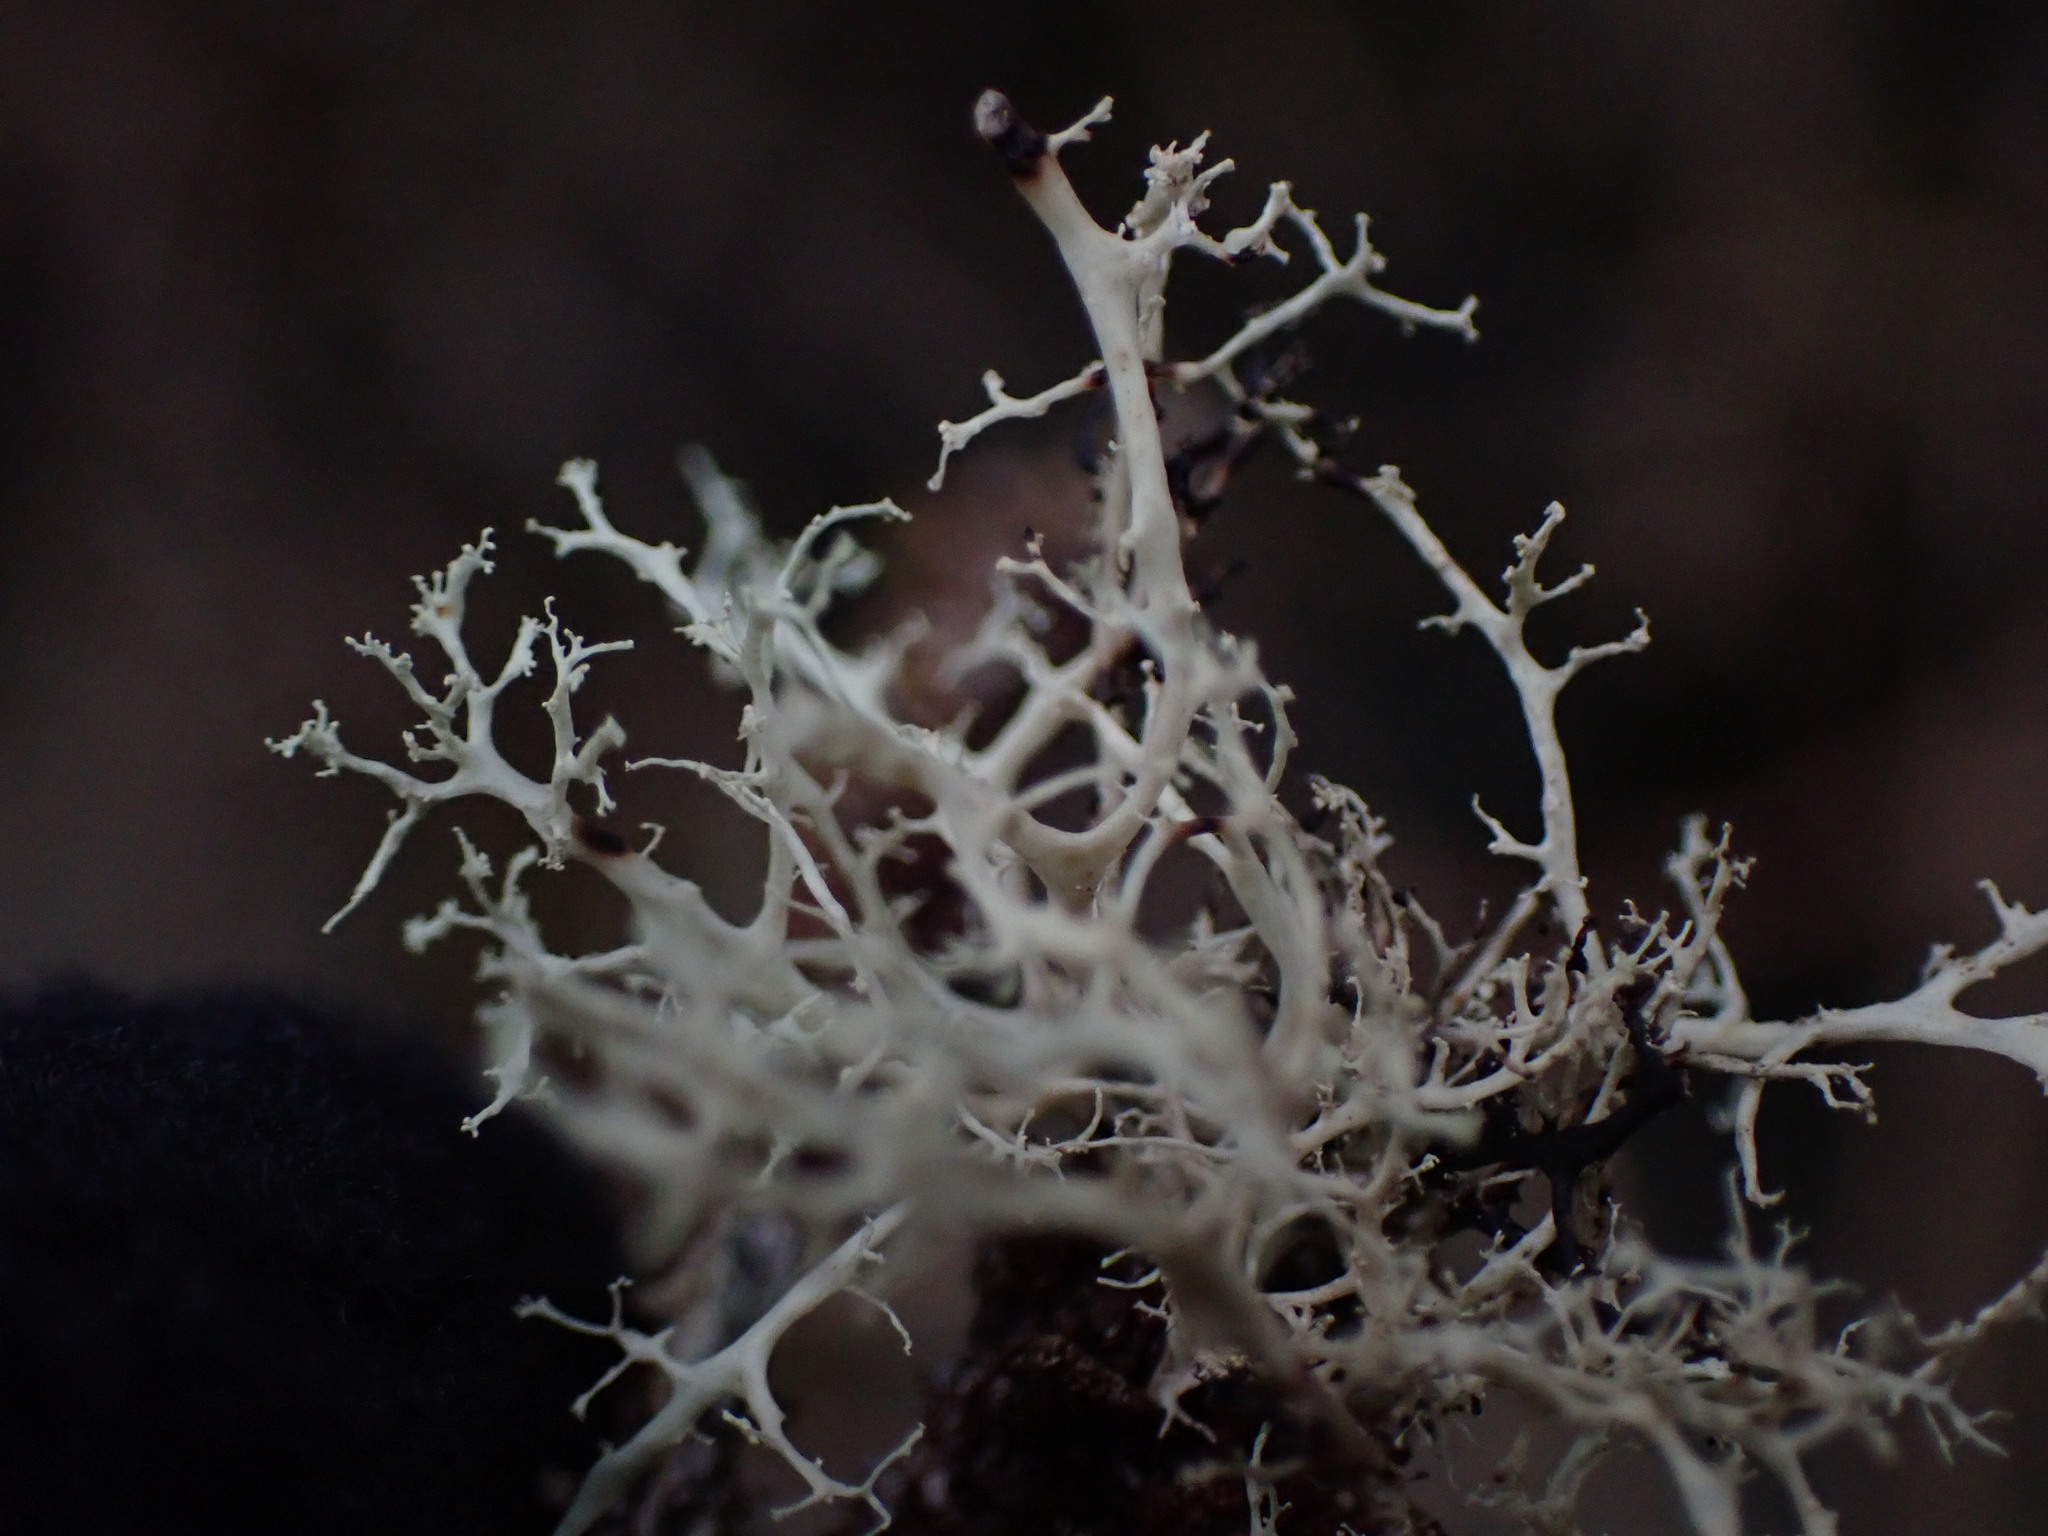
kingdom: Fungi
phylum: Ascomycota
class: Lecanoromycetes
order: Lecanorales
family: Ramalinaceae
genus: Ramalina
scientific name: Ramalina roesleri
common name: Frayed ribbon lichen
